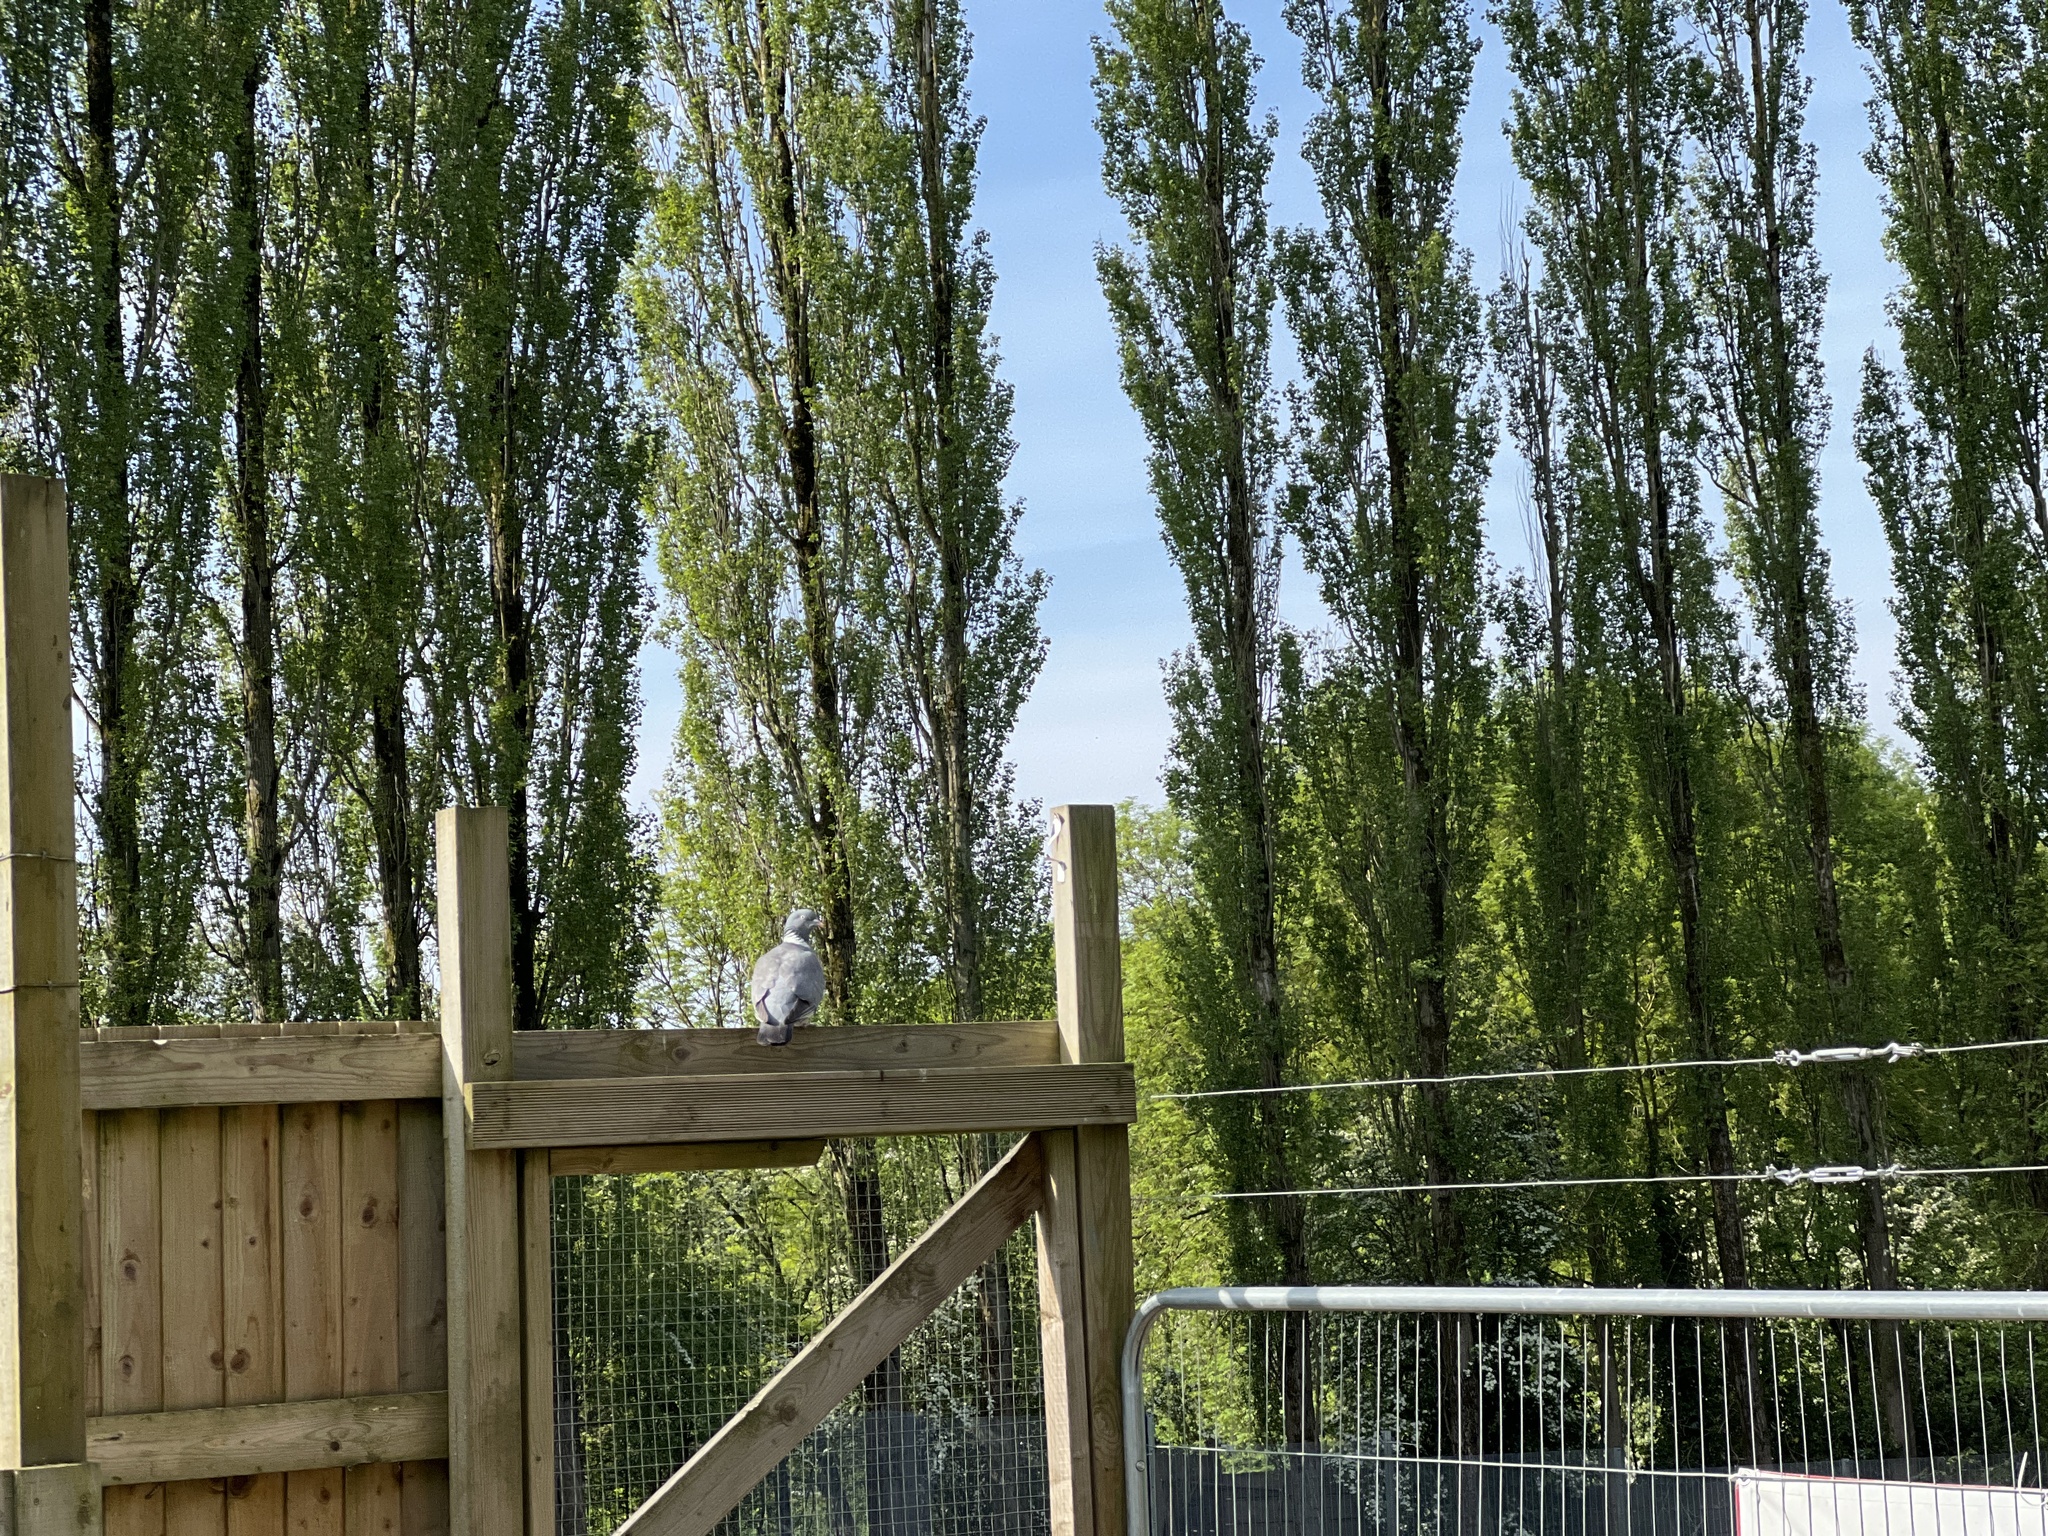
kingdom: Animalia
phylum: Chordata
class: Aves
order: Columbiformes
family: Columbidae
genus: Columba
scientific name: Columba palumbus
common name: Common wood pigeon
